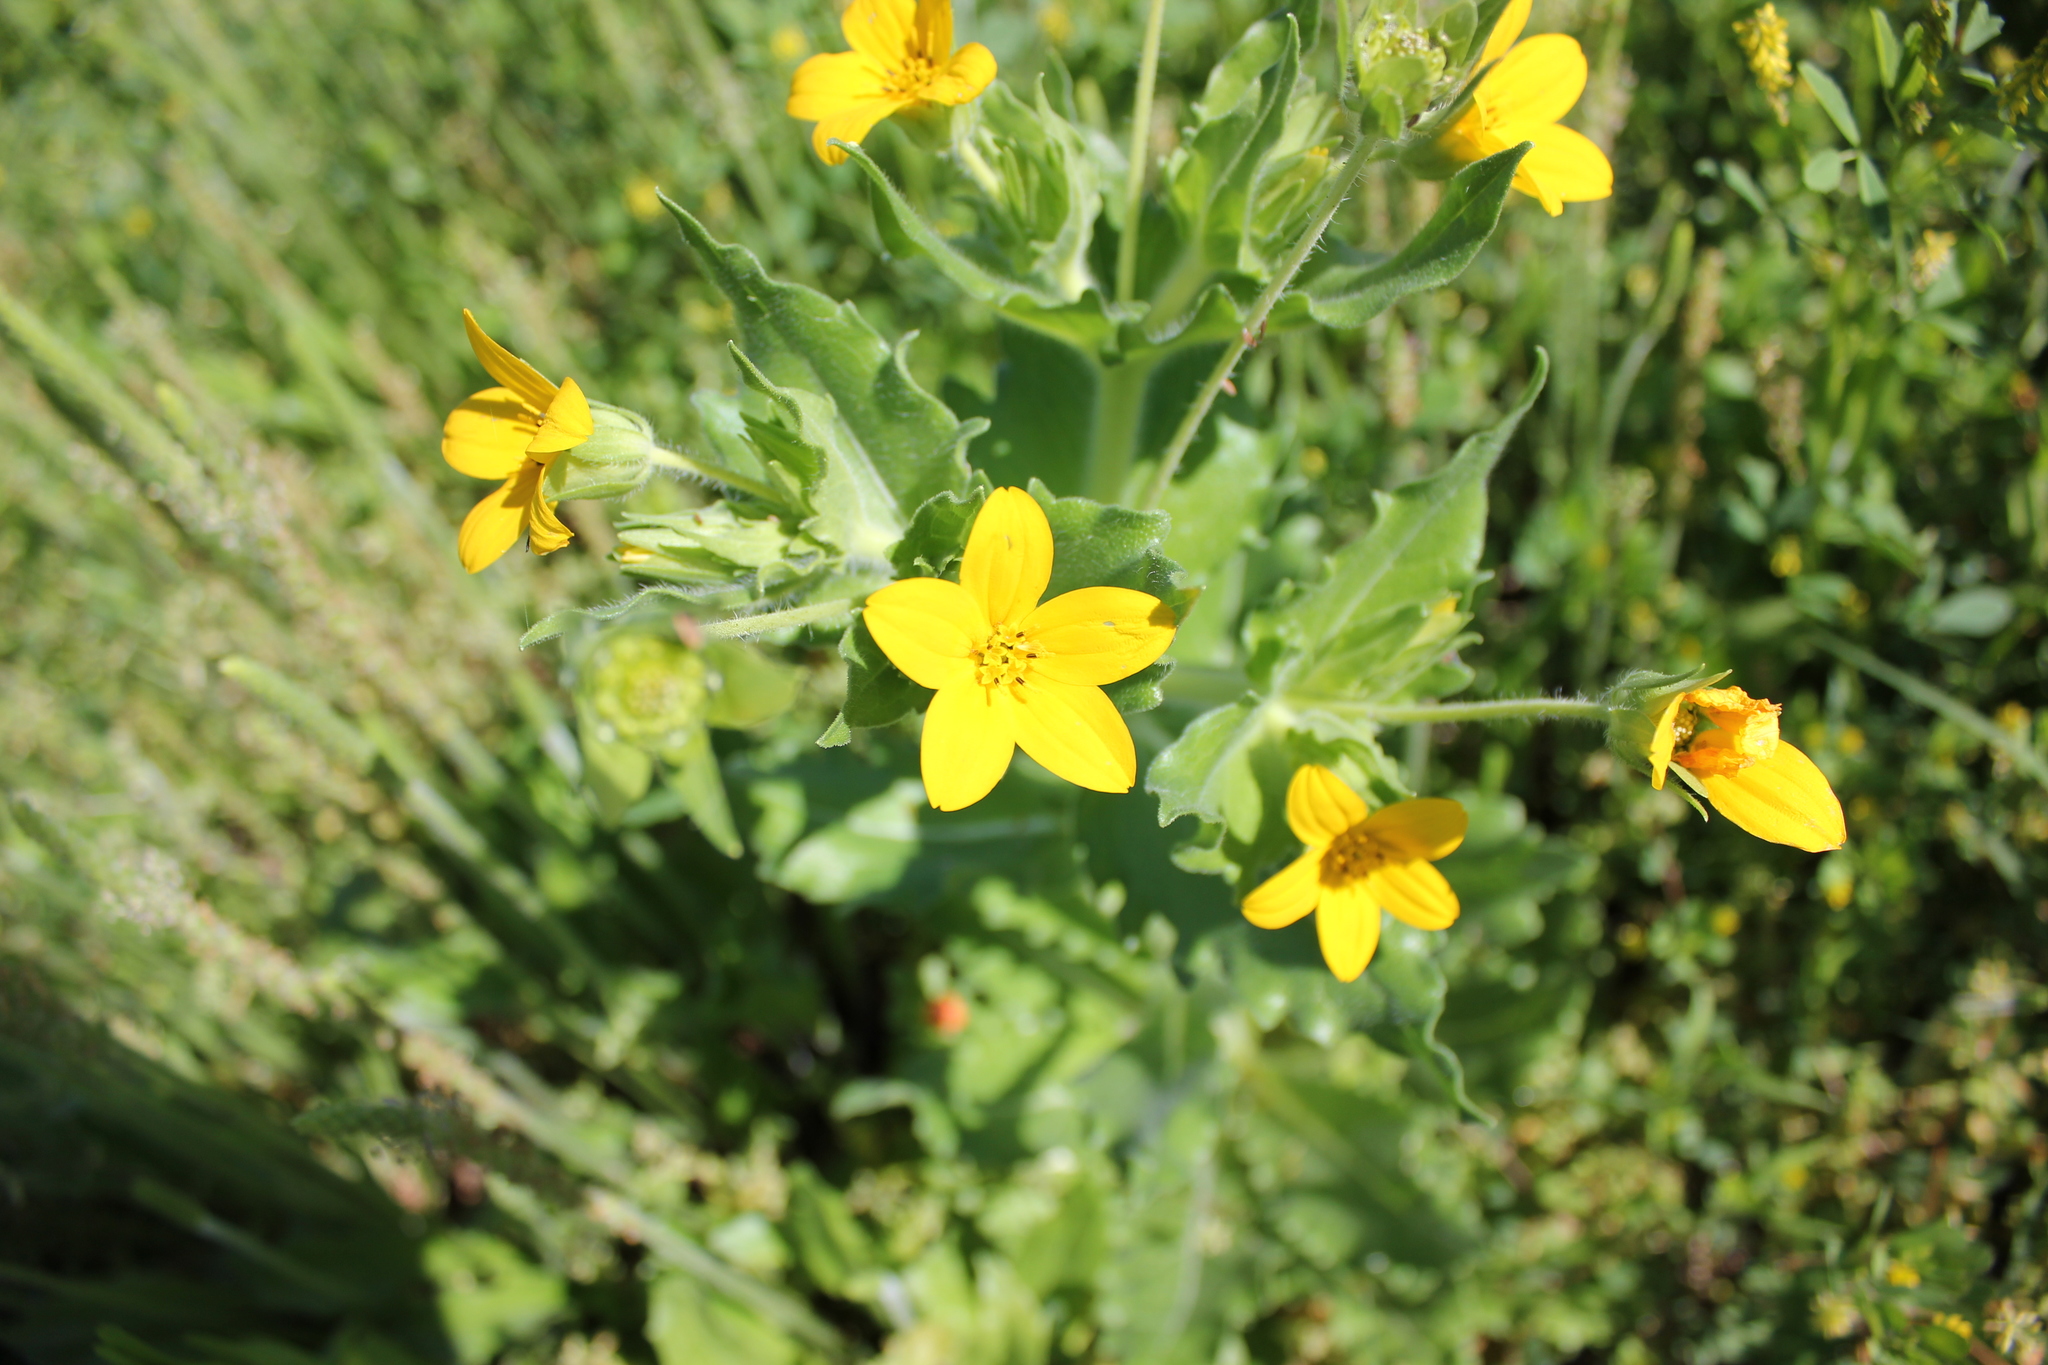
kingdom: Plantae
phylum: Tracheophyta
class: Magnoliopsida
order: Asterales
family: Asteraceae
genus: Lindheimera
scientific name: Lindheimera texana
